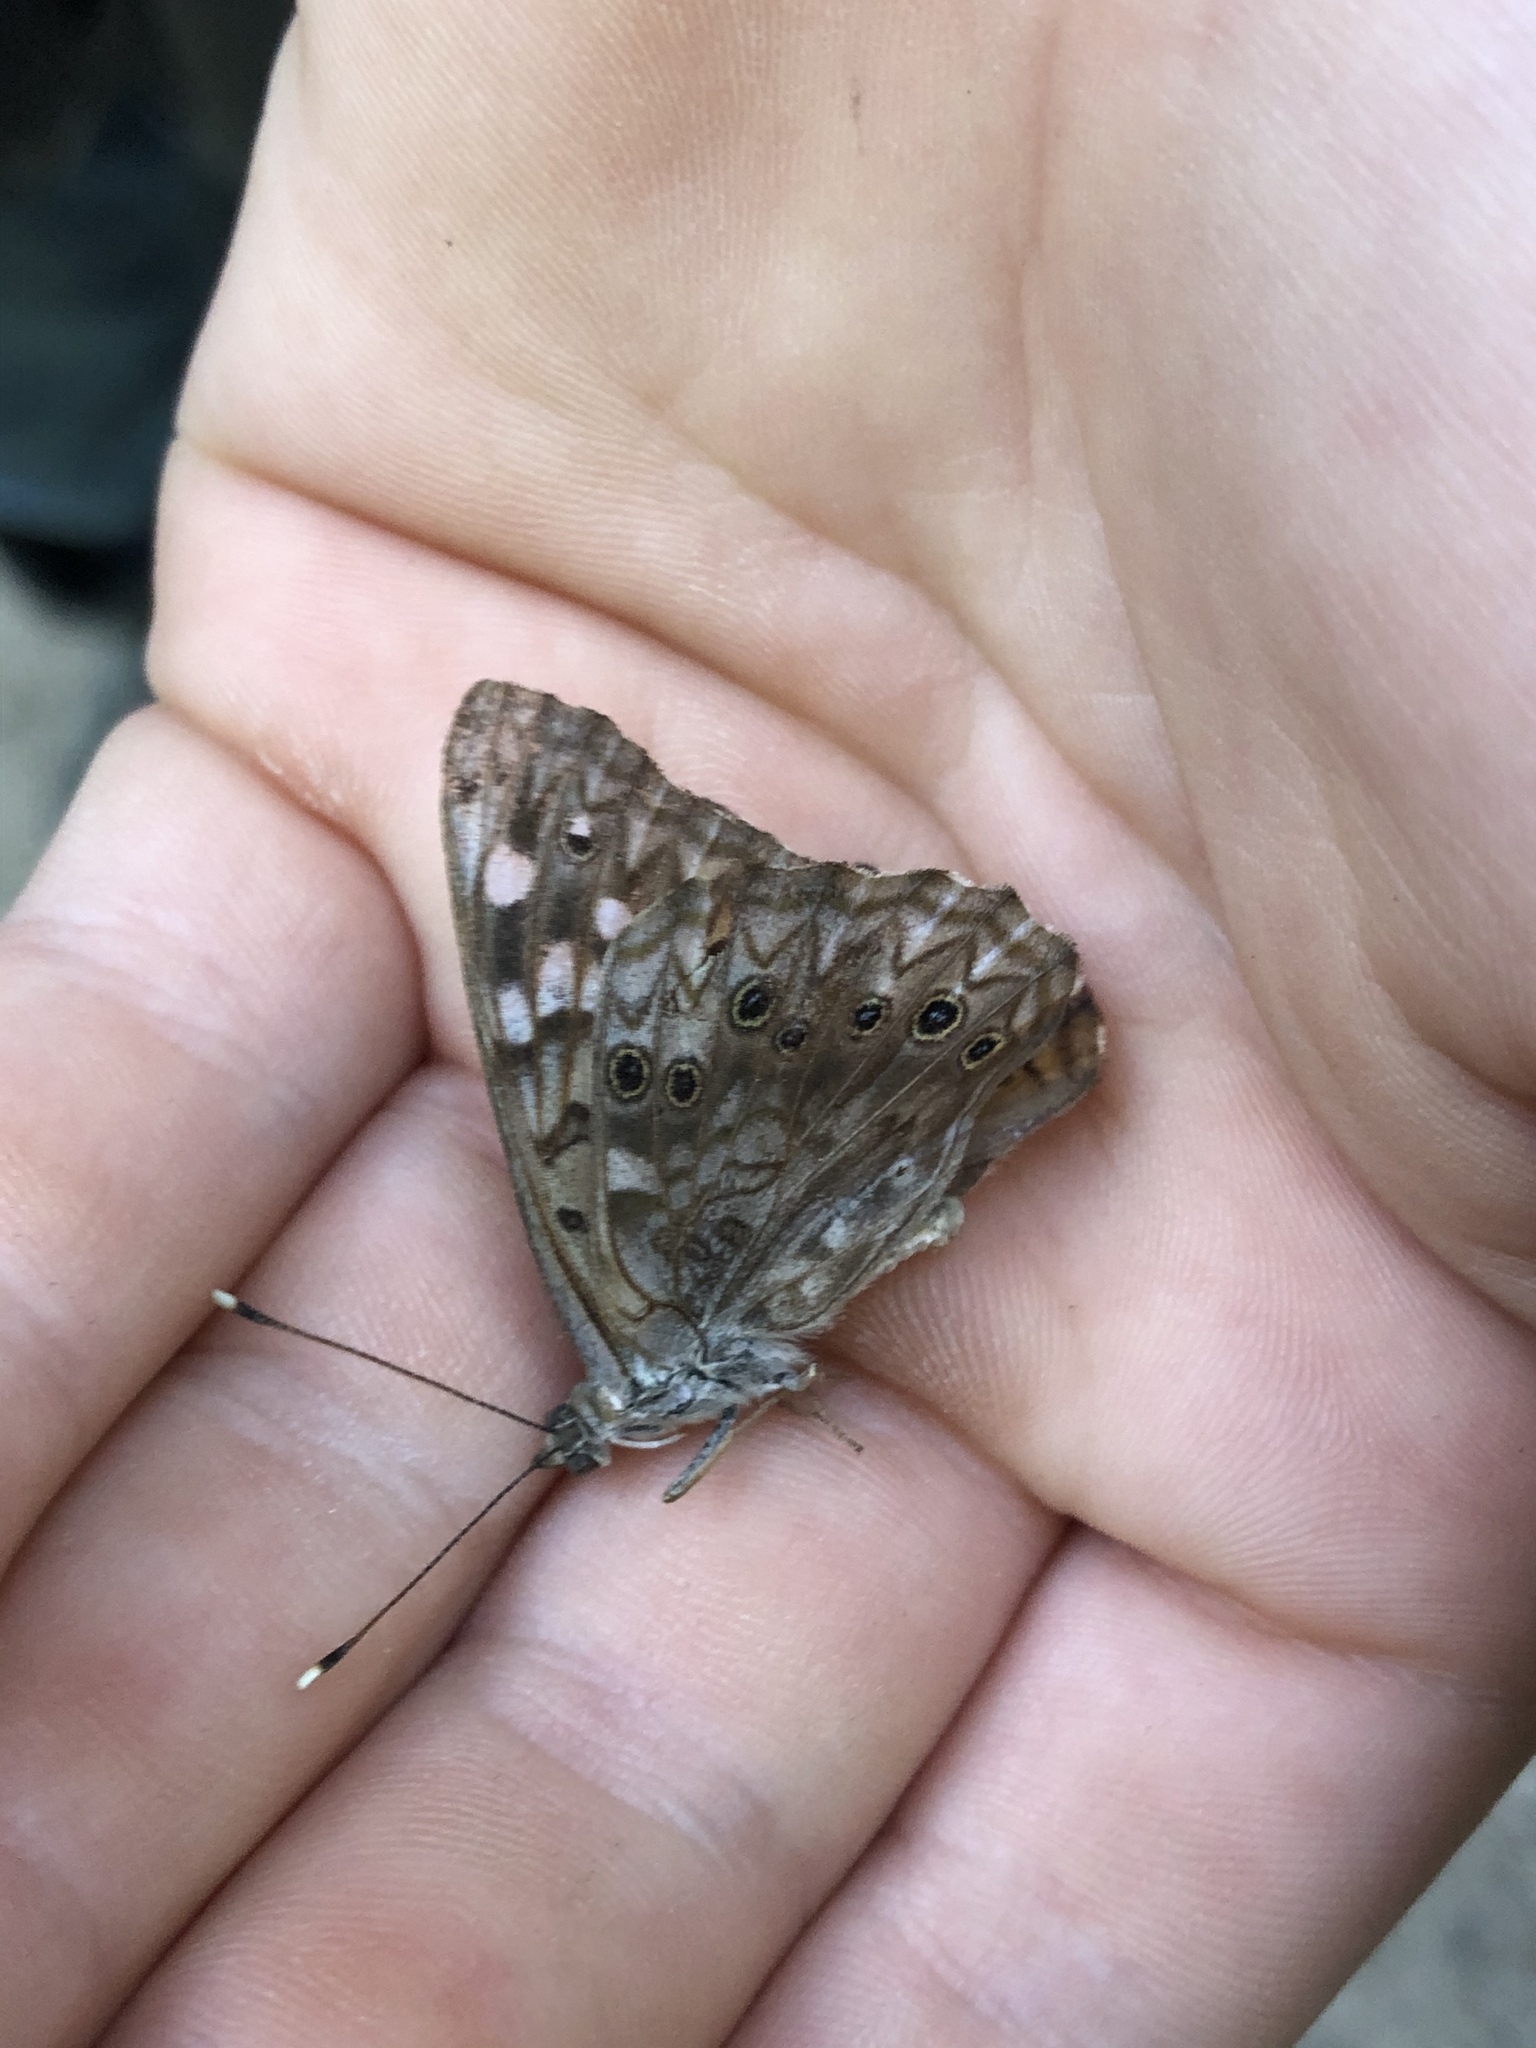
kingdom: Animalia
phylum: Arthropoda
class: Insecta
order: Lepidoptera
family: Nymphalidae
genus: Asterocampa
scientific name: Asterocampa celtis
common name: Hackberry emperor
